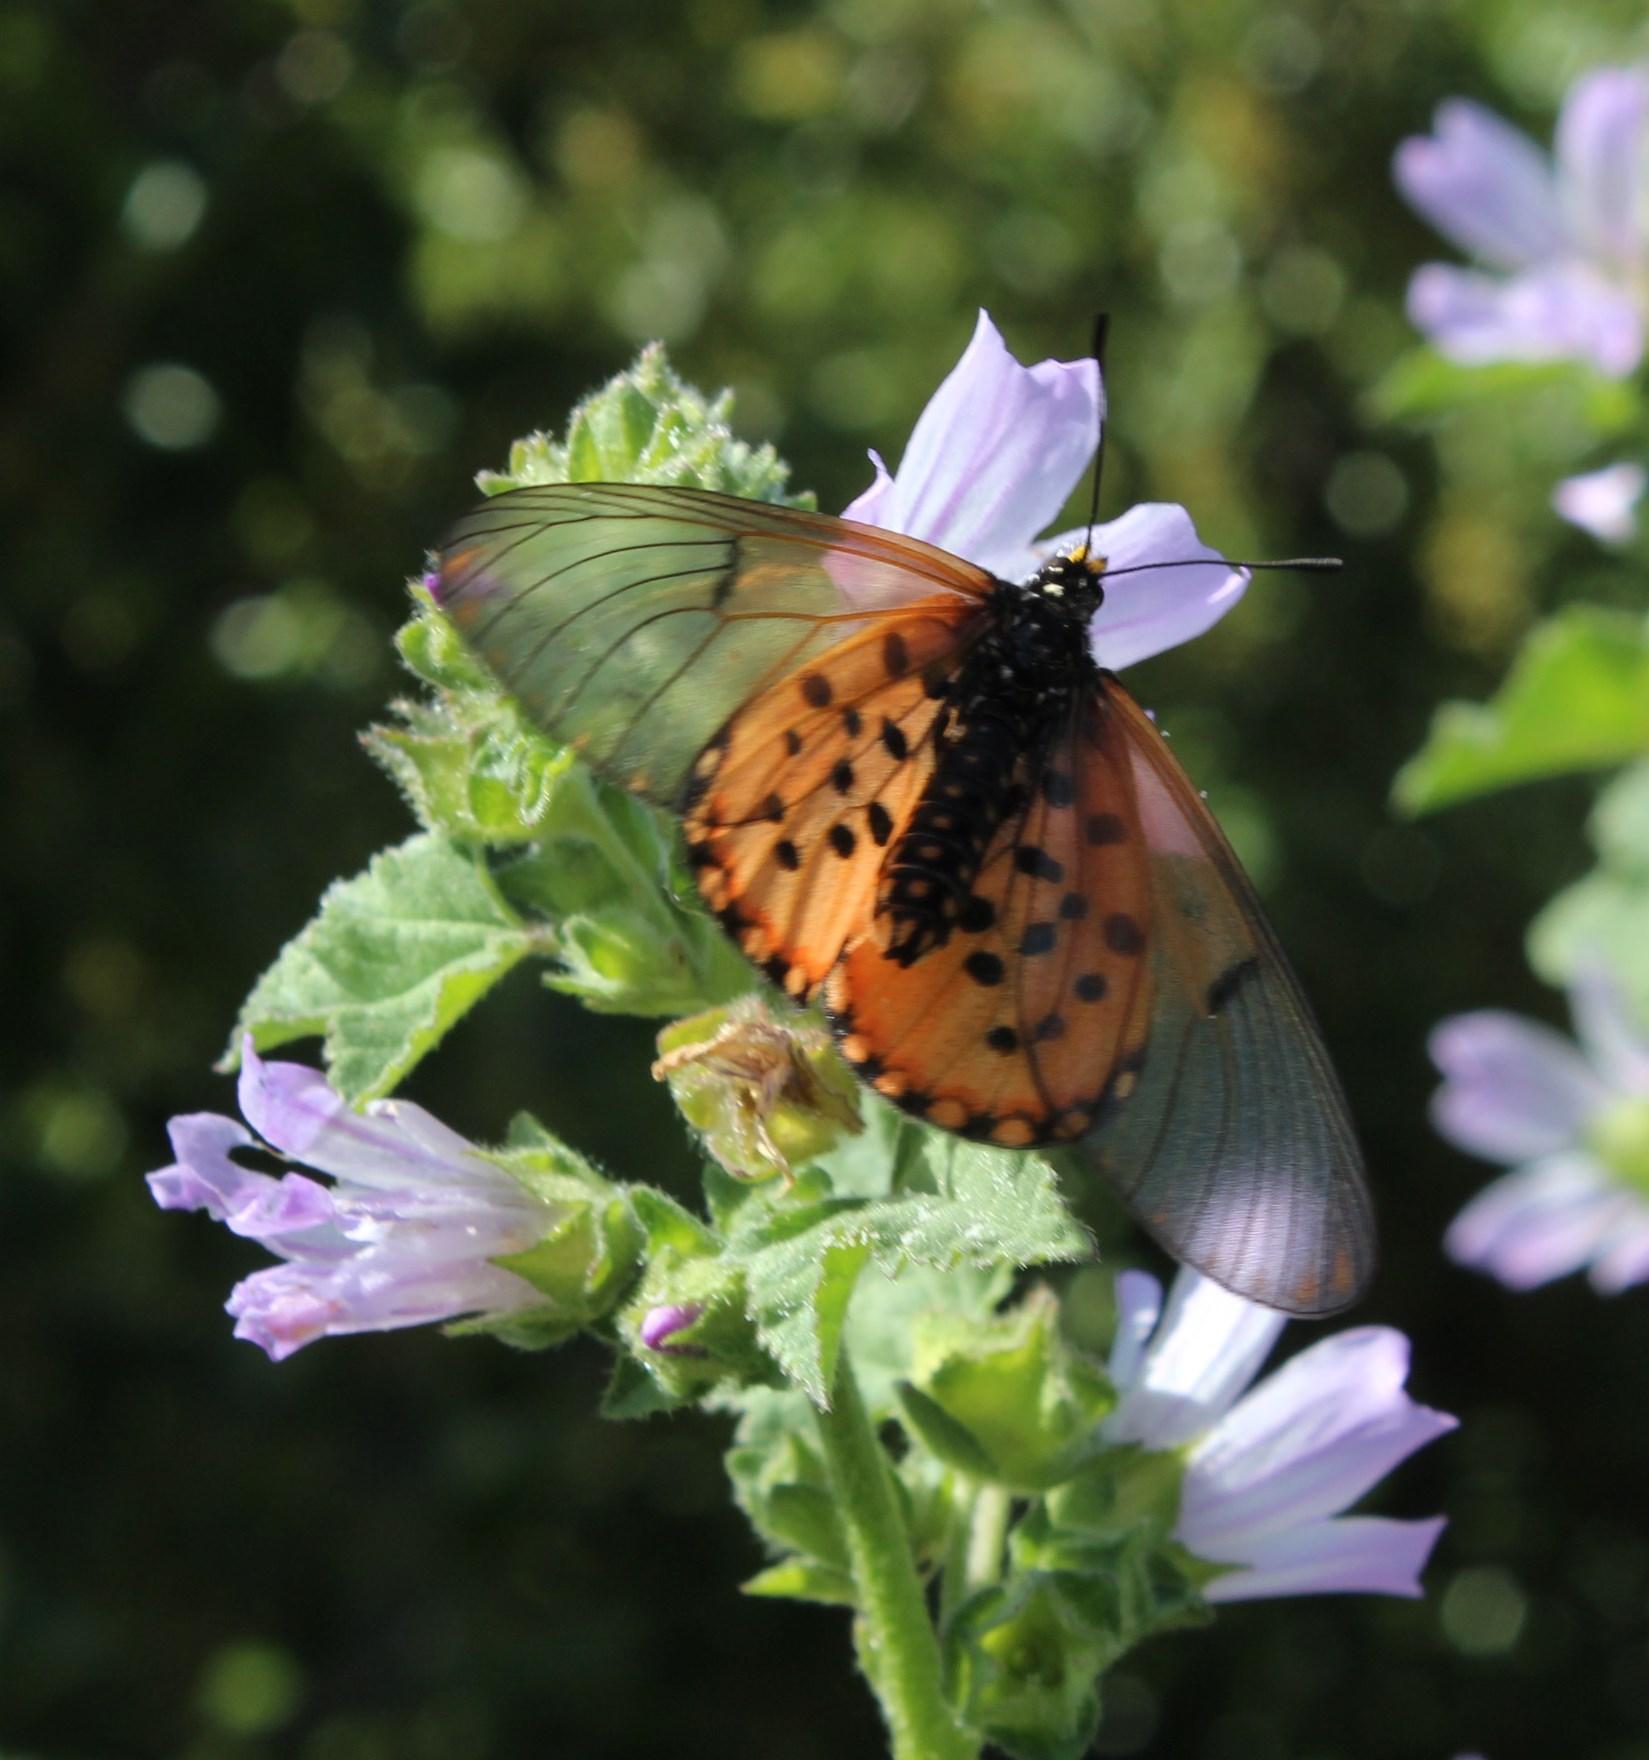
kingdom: Animalia
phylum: Arthropoda
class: Insecta
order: Lepidoptera
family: Nymphalidae
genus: Acraea
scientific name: Acraea horta
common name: Garden acraea
